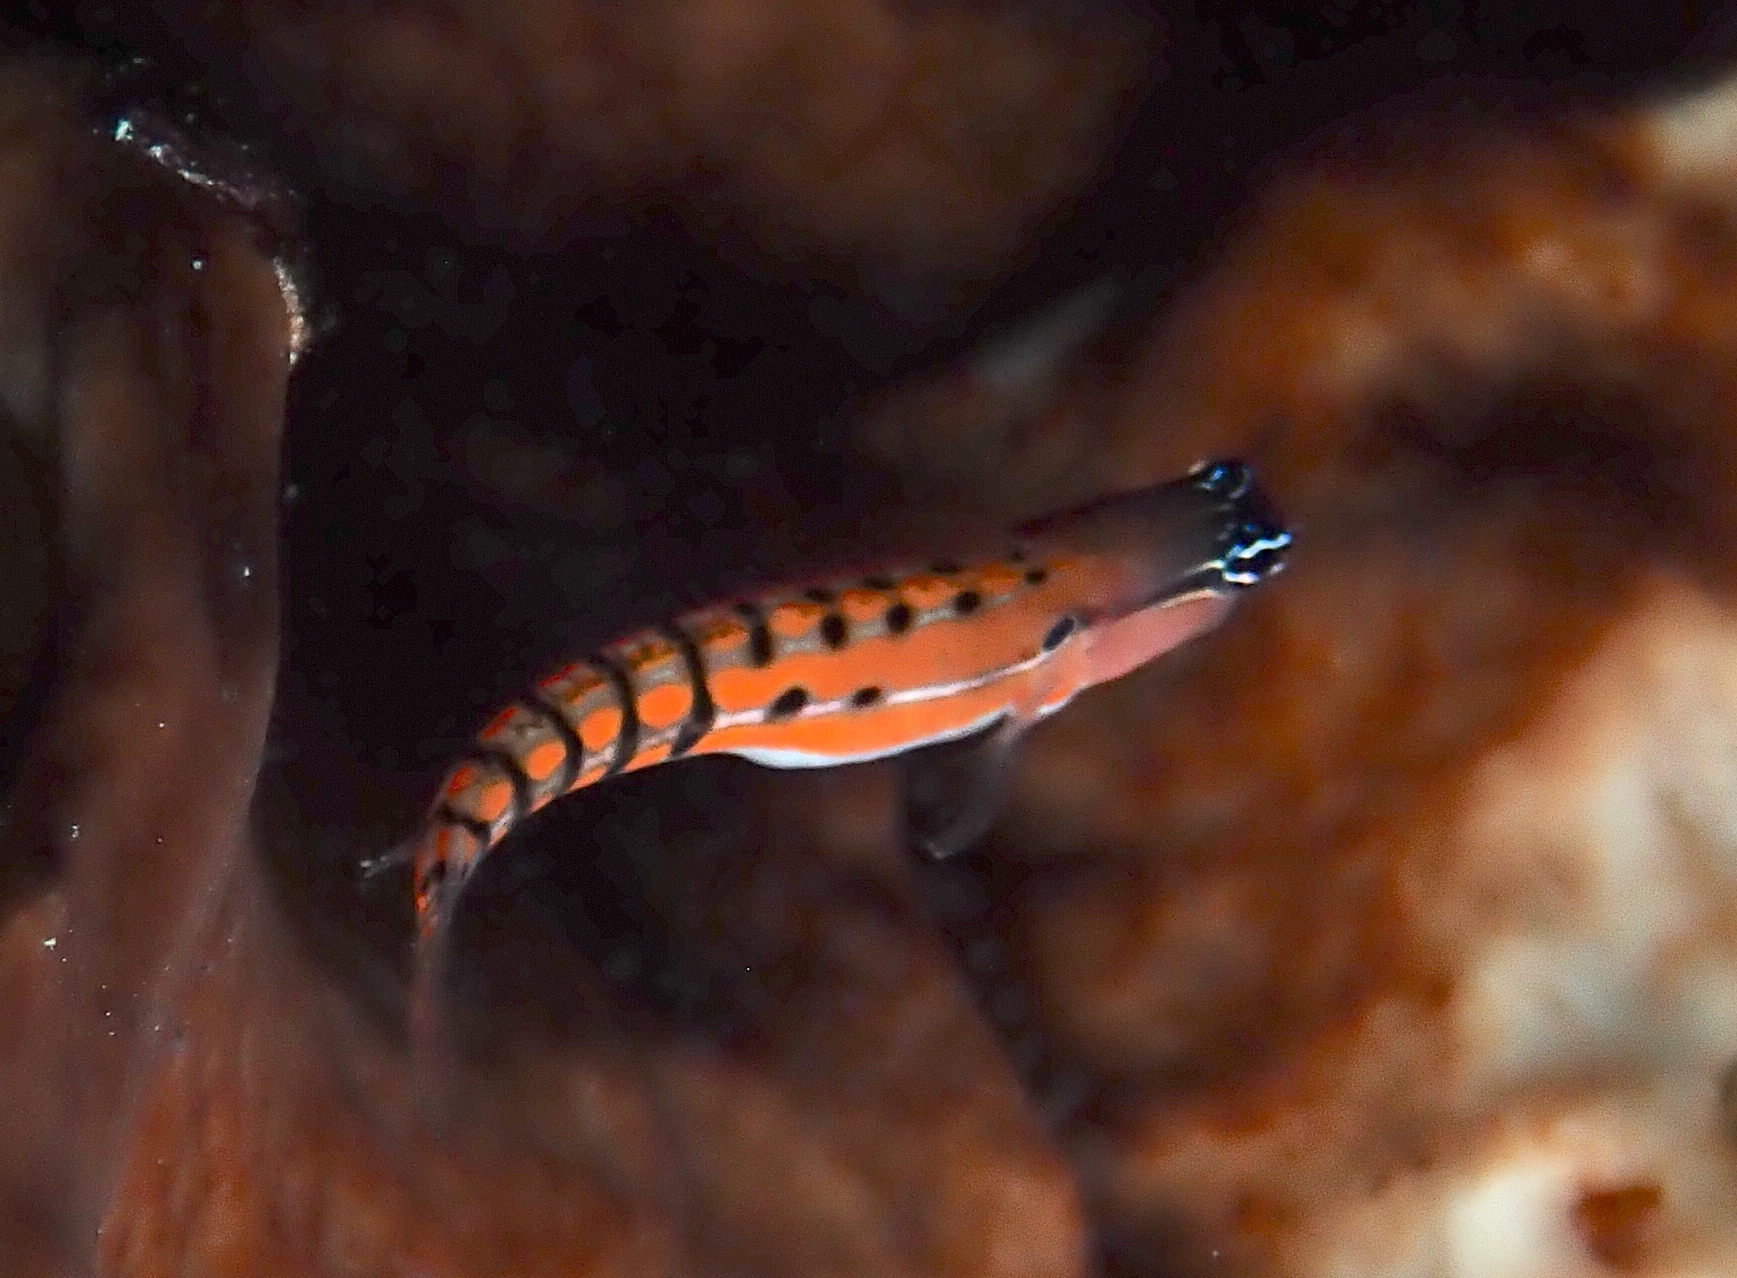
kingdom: Animalia
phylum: Chordata
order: Perciformes
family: Blenniidae
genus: Ecsenius
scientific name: Ecsenius axelrodi
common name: Axelrod's clown blenny
